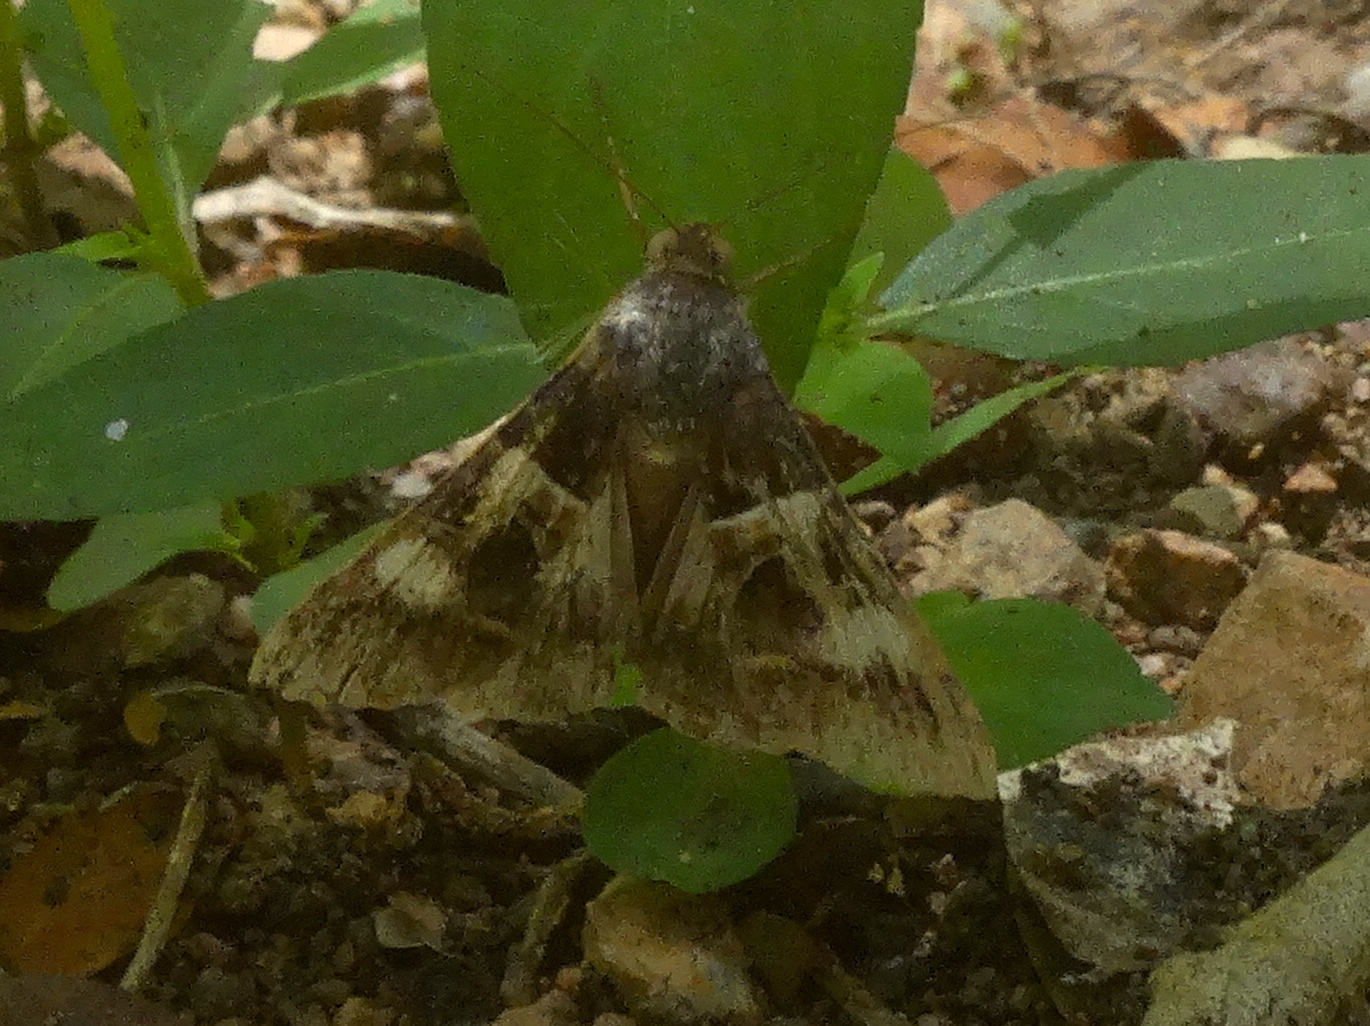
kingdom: Animalia
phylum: Arthropoda
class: Insecta
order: Lepidoptera
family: Erebidae
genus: Melipotis
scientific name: Melipotis
